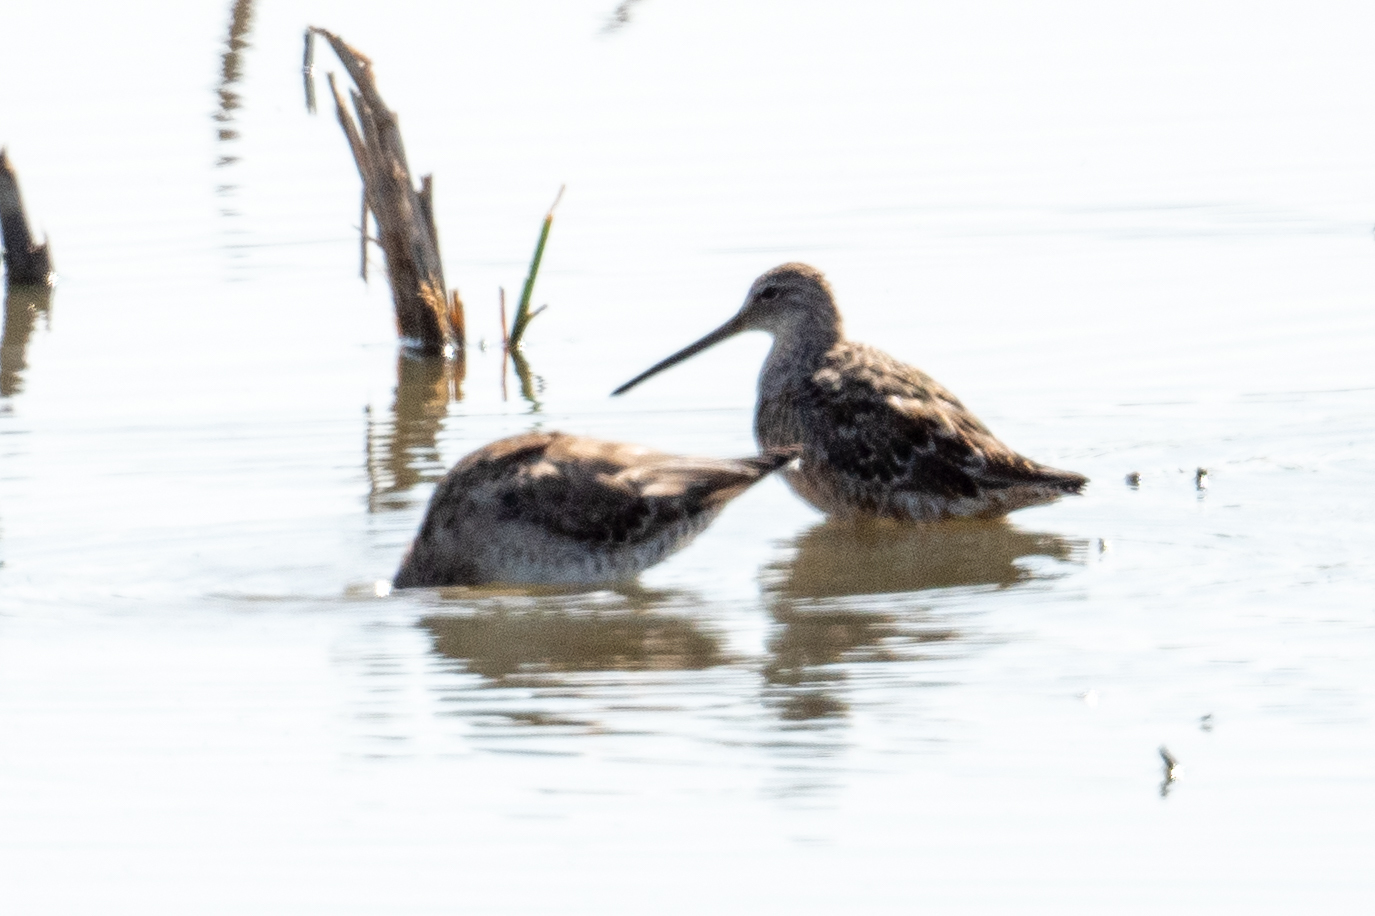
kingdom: Animalia
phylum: Chordata
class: Aves
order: Charadriiformes
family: Scolopacidae
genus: Limnodromus
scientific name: Limnodromus scolopaceus
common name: Long-billed dowitcher
